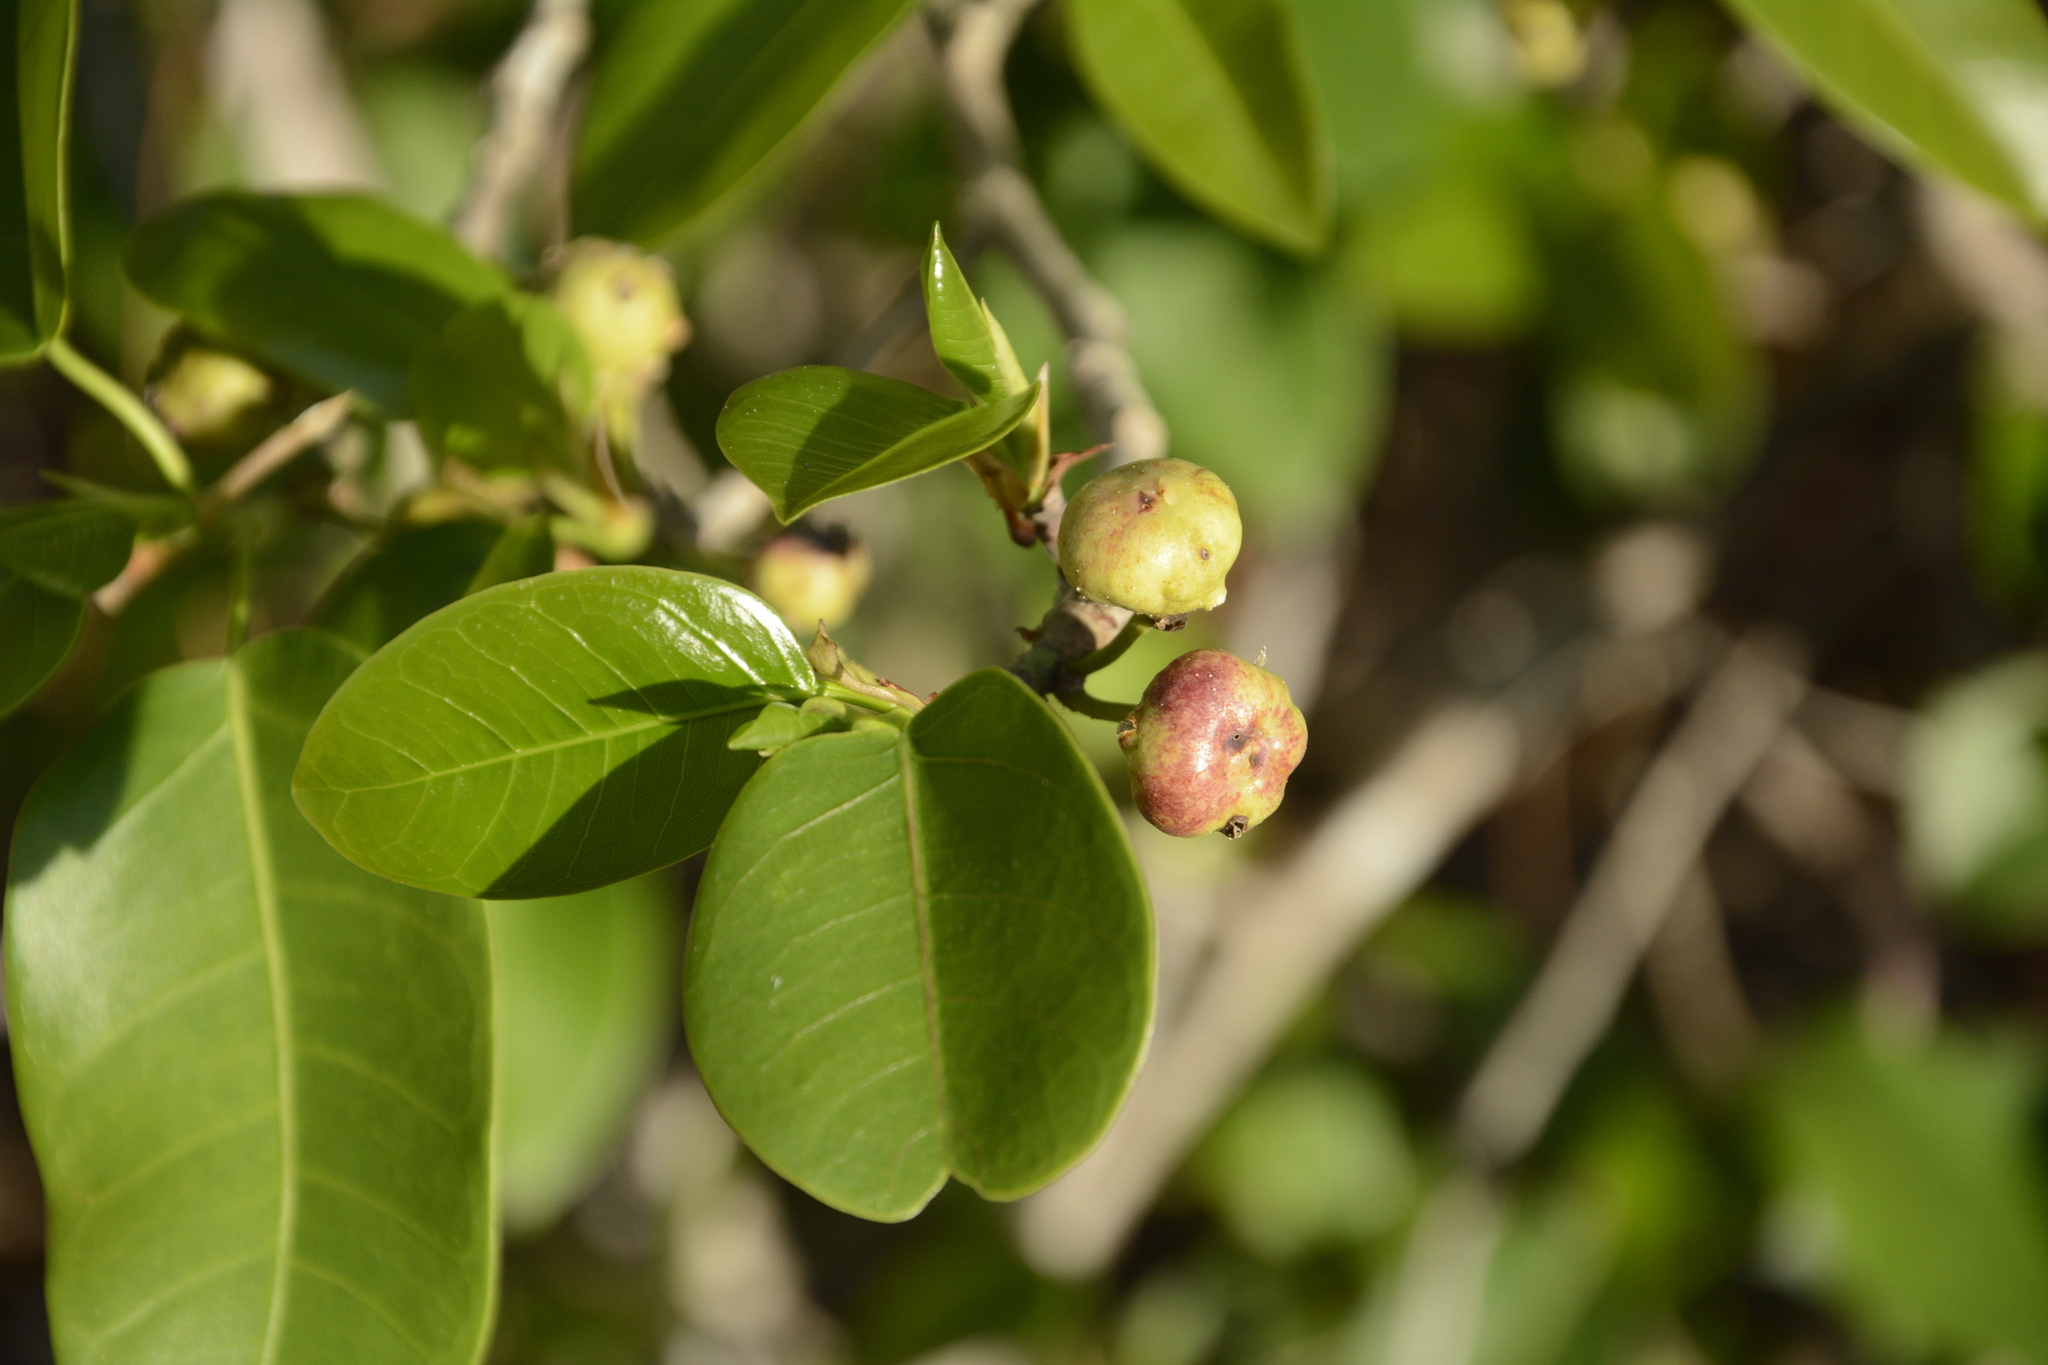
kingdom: Plantae
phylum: Tracheophyta
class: Magnoliopsida
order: Rosales
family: Moraceae
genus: Ficus
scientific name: Ficus citrifolia
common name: Strangler fig
